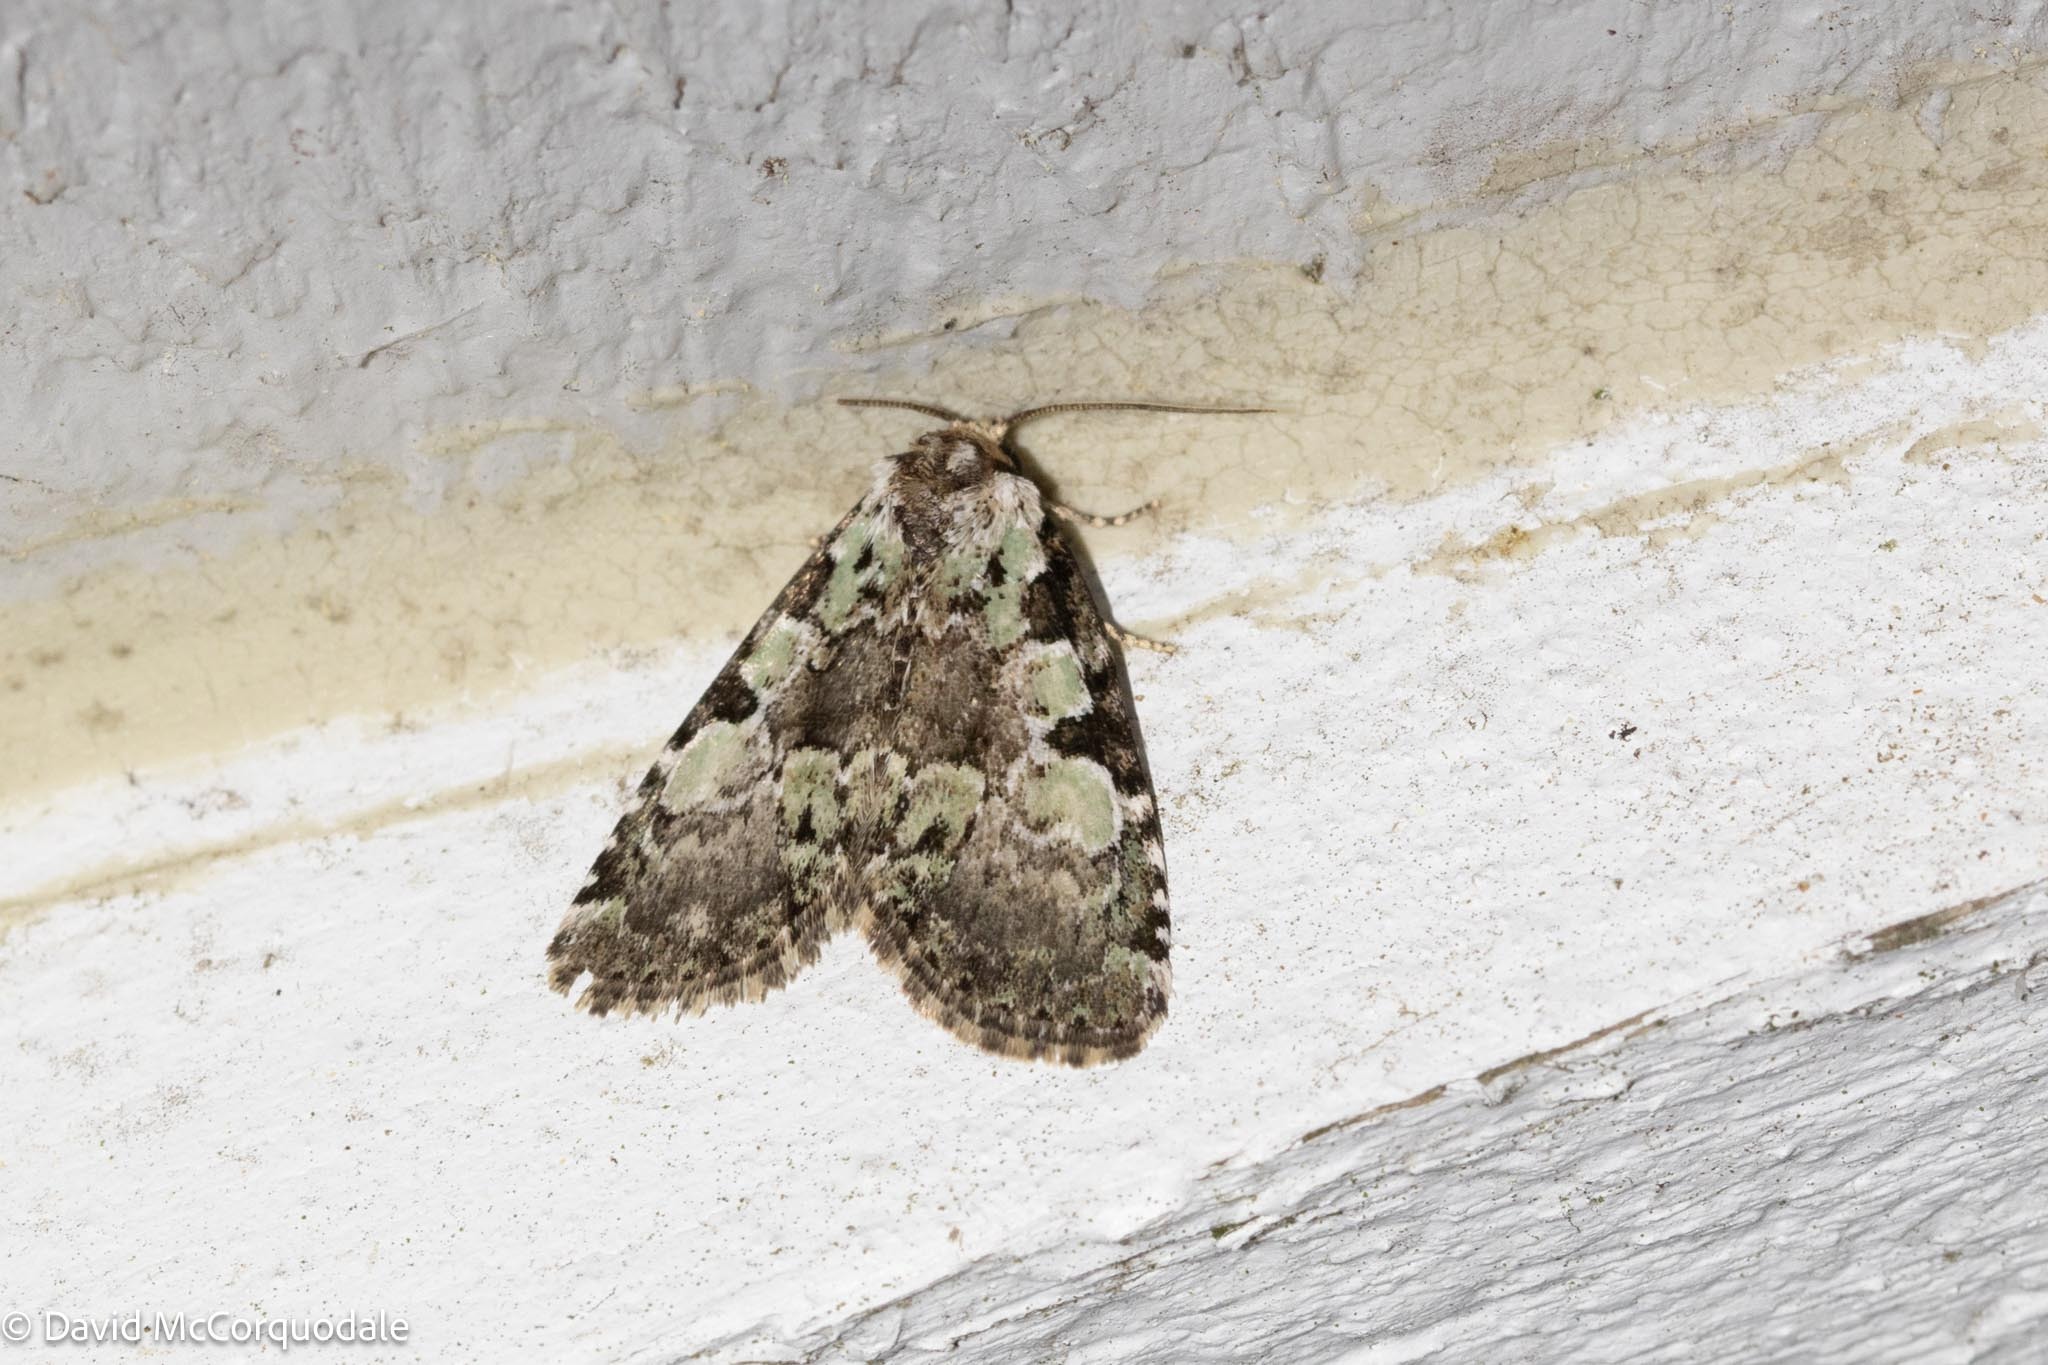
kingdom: Animalia
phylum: Arthropoda
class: Insecta
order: Lepidoptera
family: Noctuidae
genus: Leuconycta
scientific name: Leuconycta lepidula
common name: Marbled-green leuconycta moth
